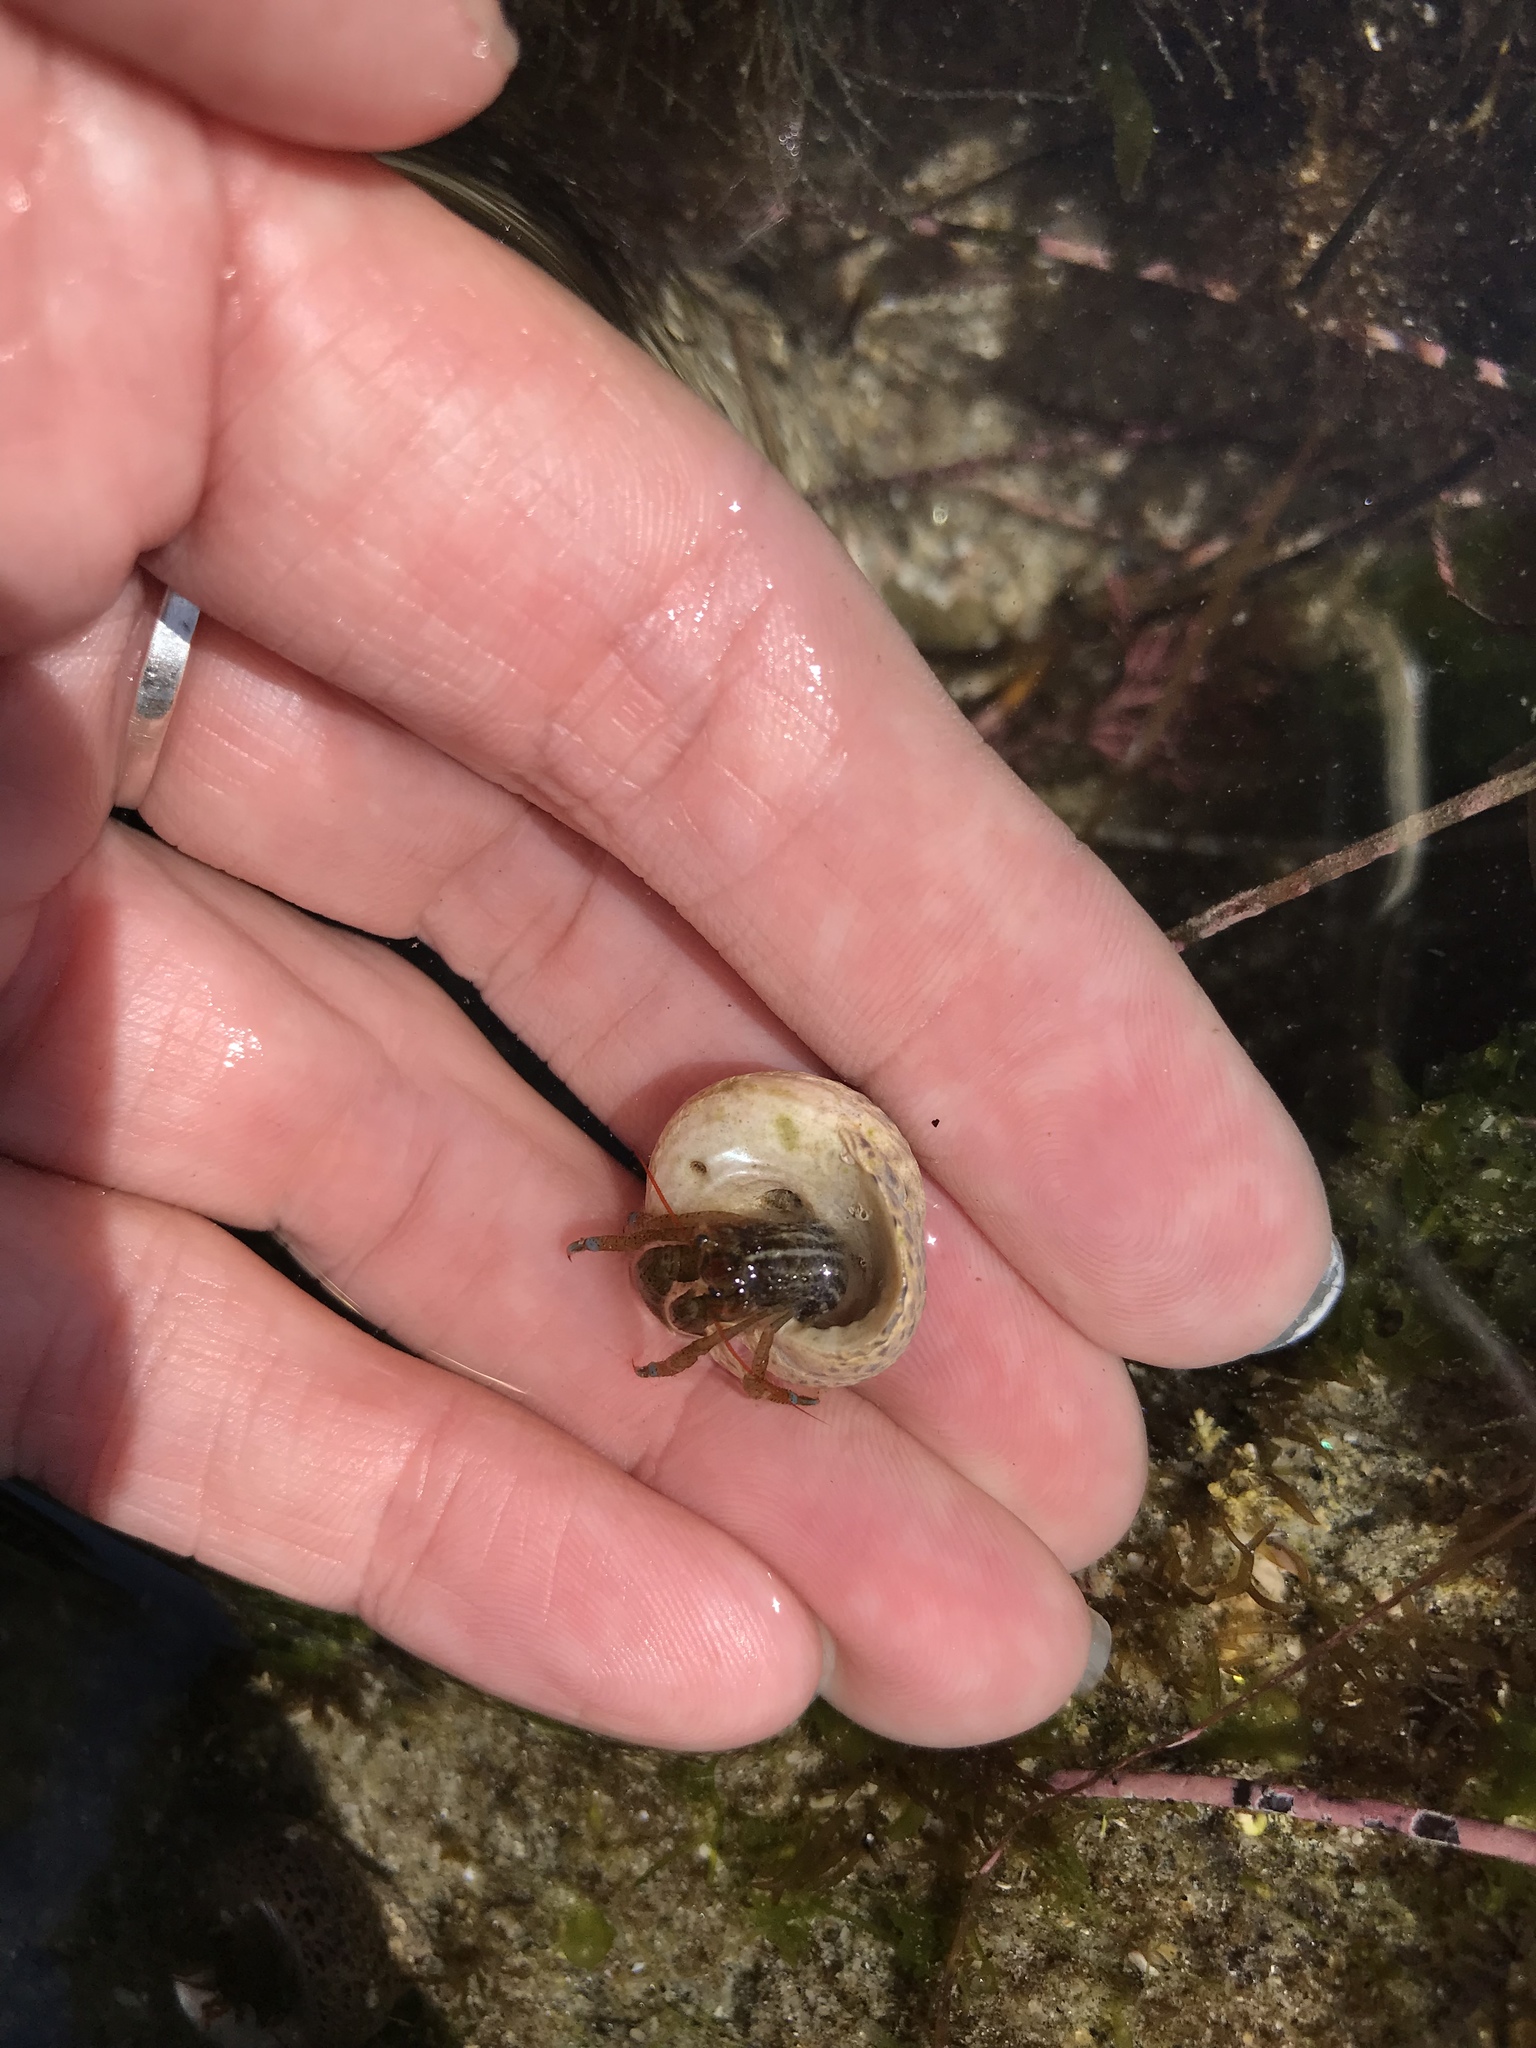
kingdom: Animalia
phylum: Arthropoda
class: Malacostraca
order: Decapoda
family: Paguridae
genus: Pagurus
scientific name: Pagurus samuelis
